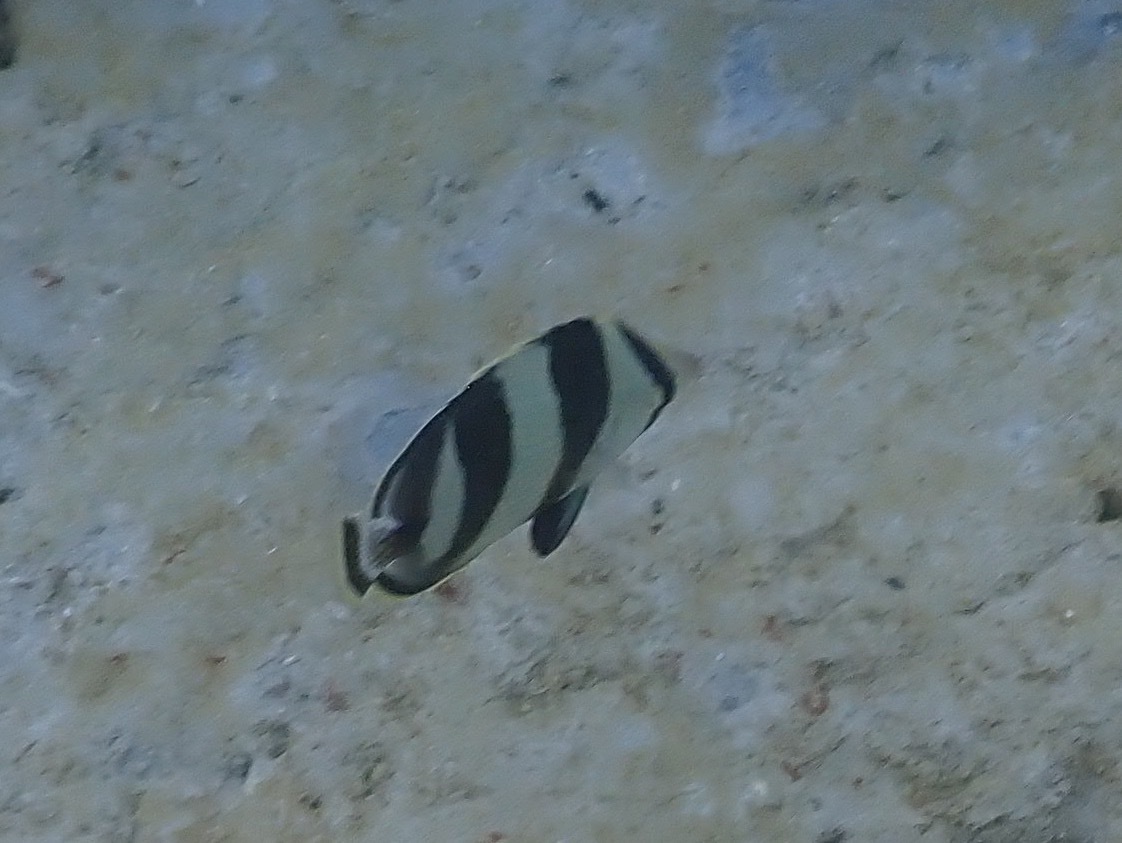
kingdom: Animalia
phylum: Chordata
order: Perciformes
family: Chaetodontidae
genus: Chaetodon
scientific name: Chaetodon striatus
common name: Banded butterflyfish
